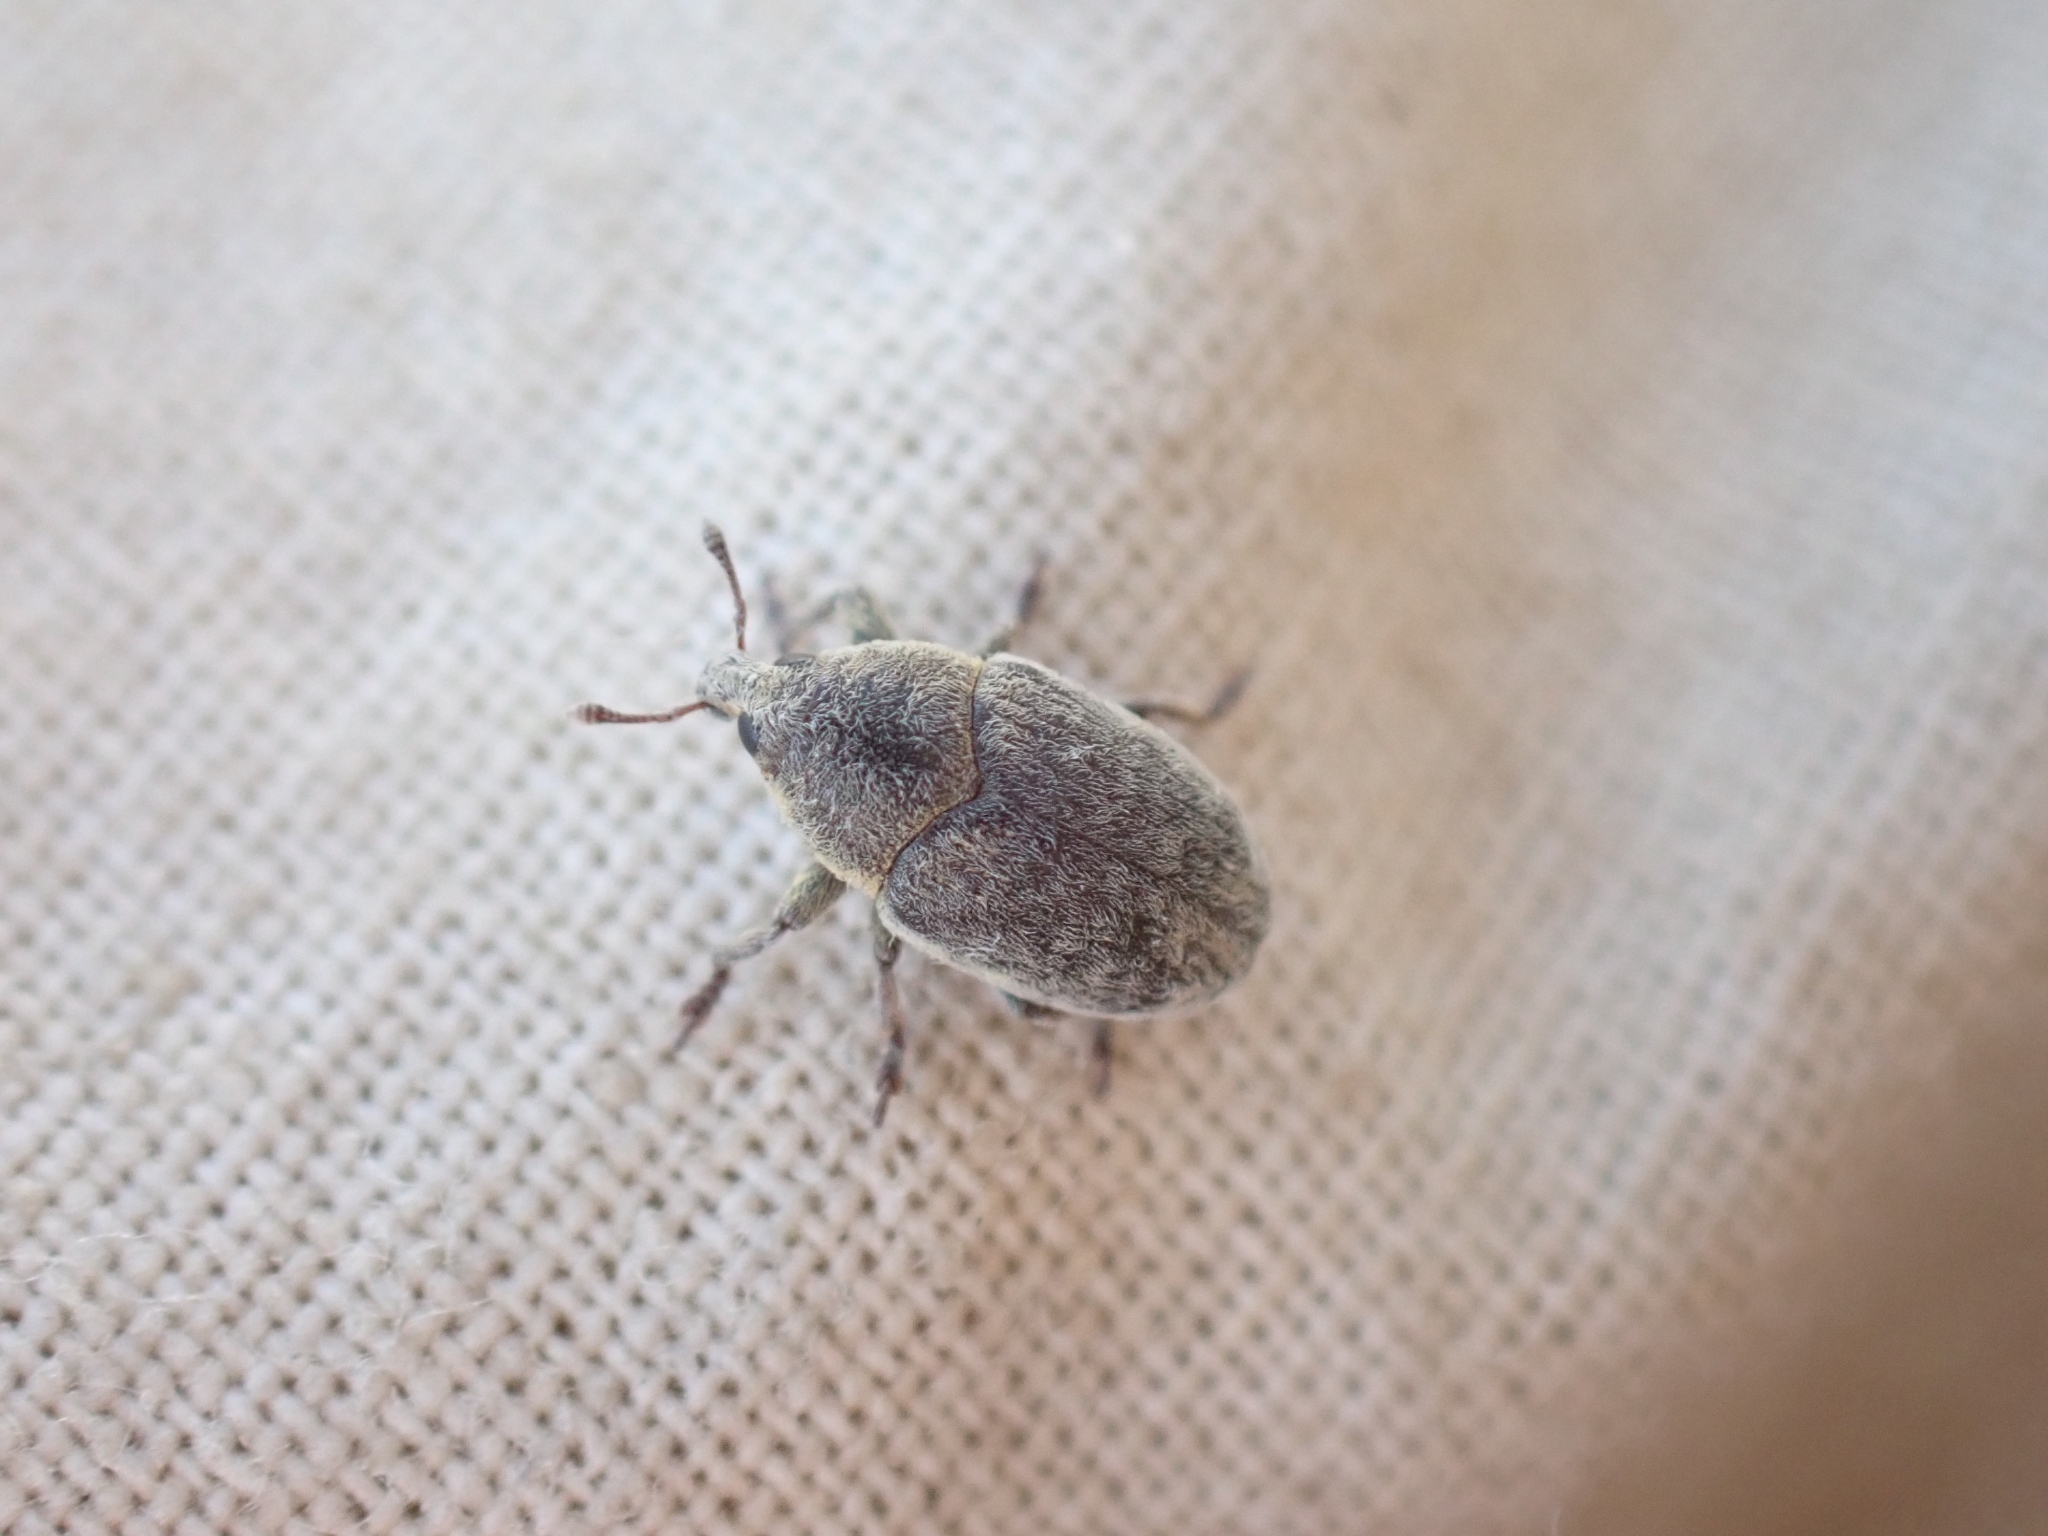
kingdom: Animalia
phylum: Arthropoda
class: Insecta
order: Coleoptera
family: Curculionidae
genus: Larinus
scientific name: Larinus minutus
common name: Weevil
